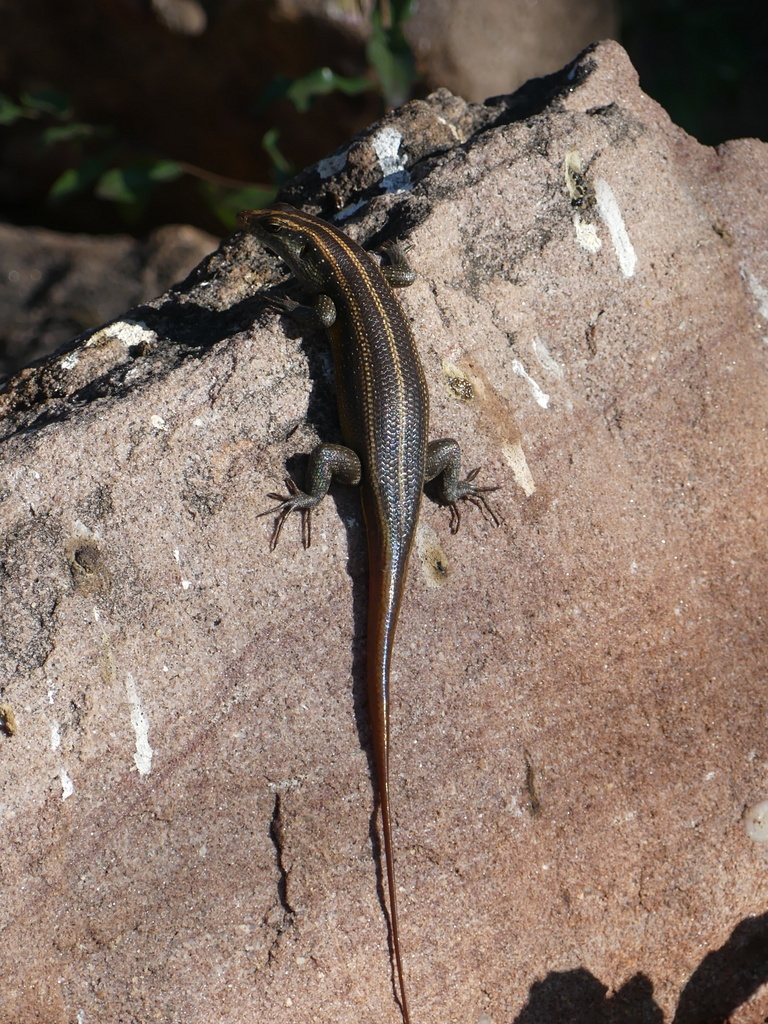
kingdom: Animalia
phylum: Chordata
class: Squamata
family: Scincidae
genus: Trachylepis
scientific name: Trachylepis margaritifera
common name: Rainbow skink
